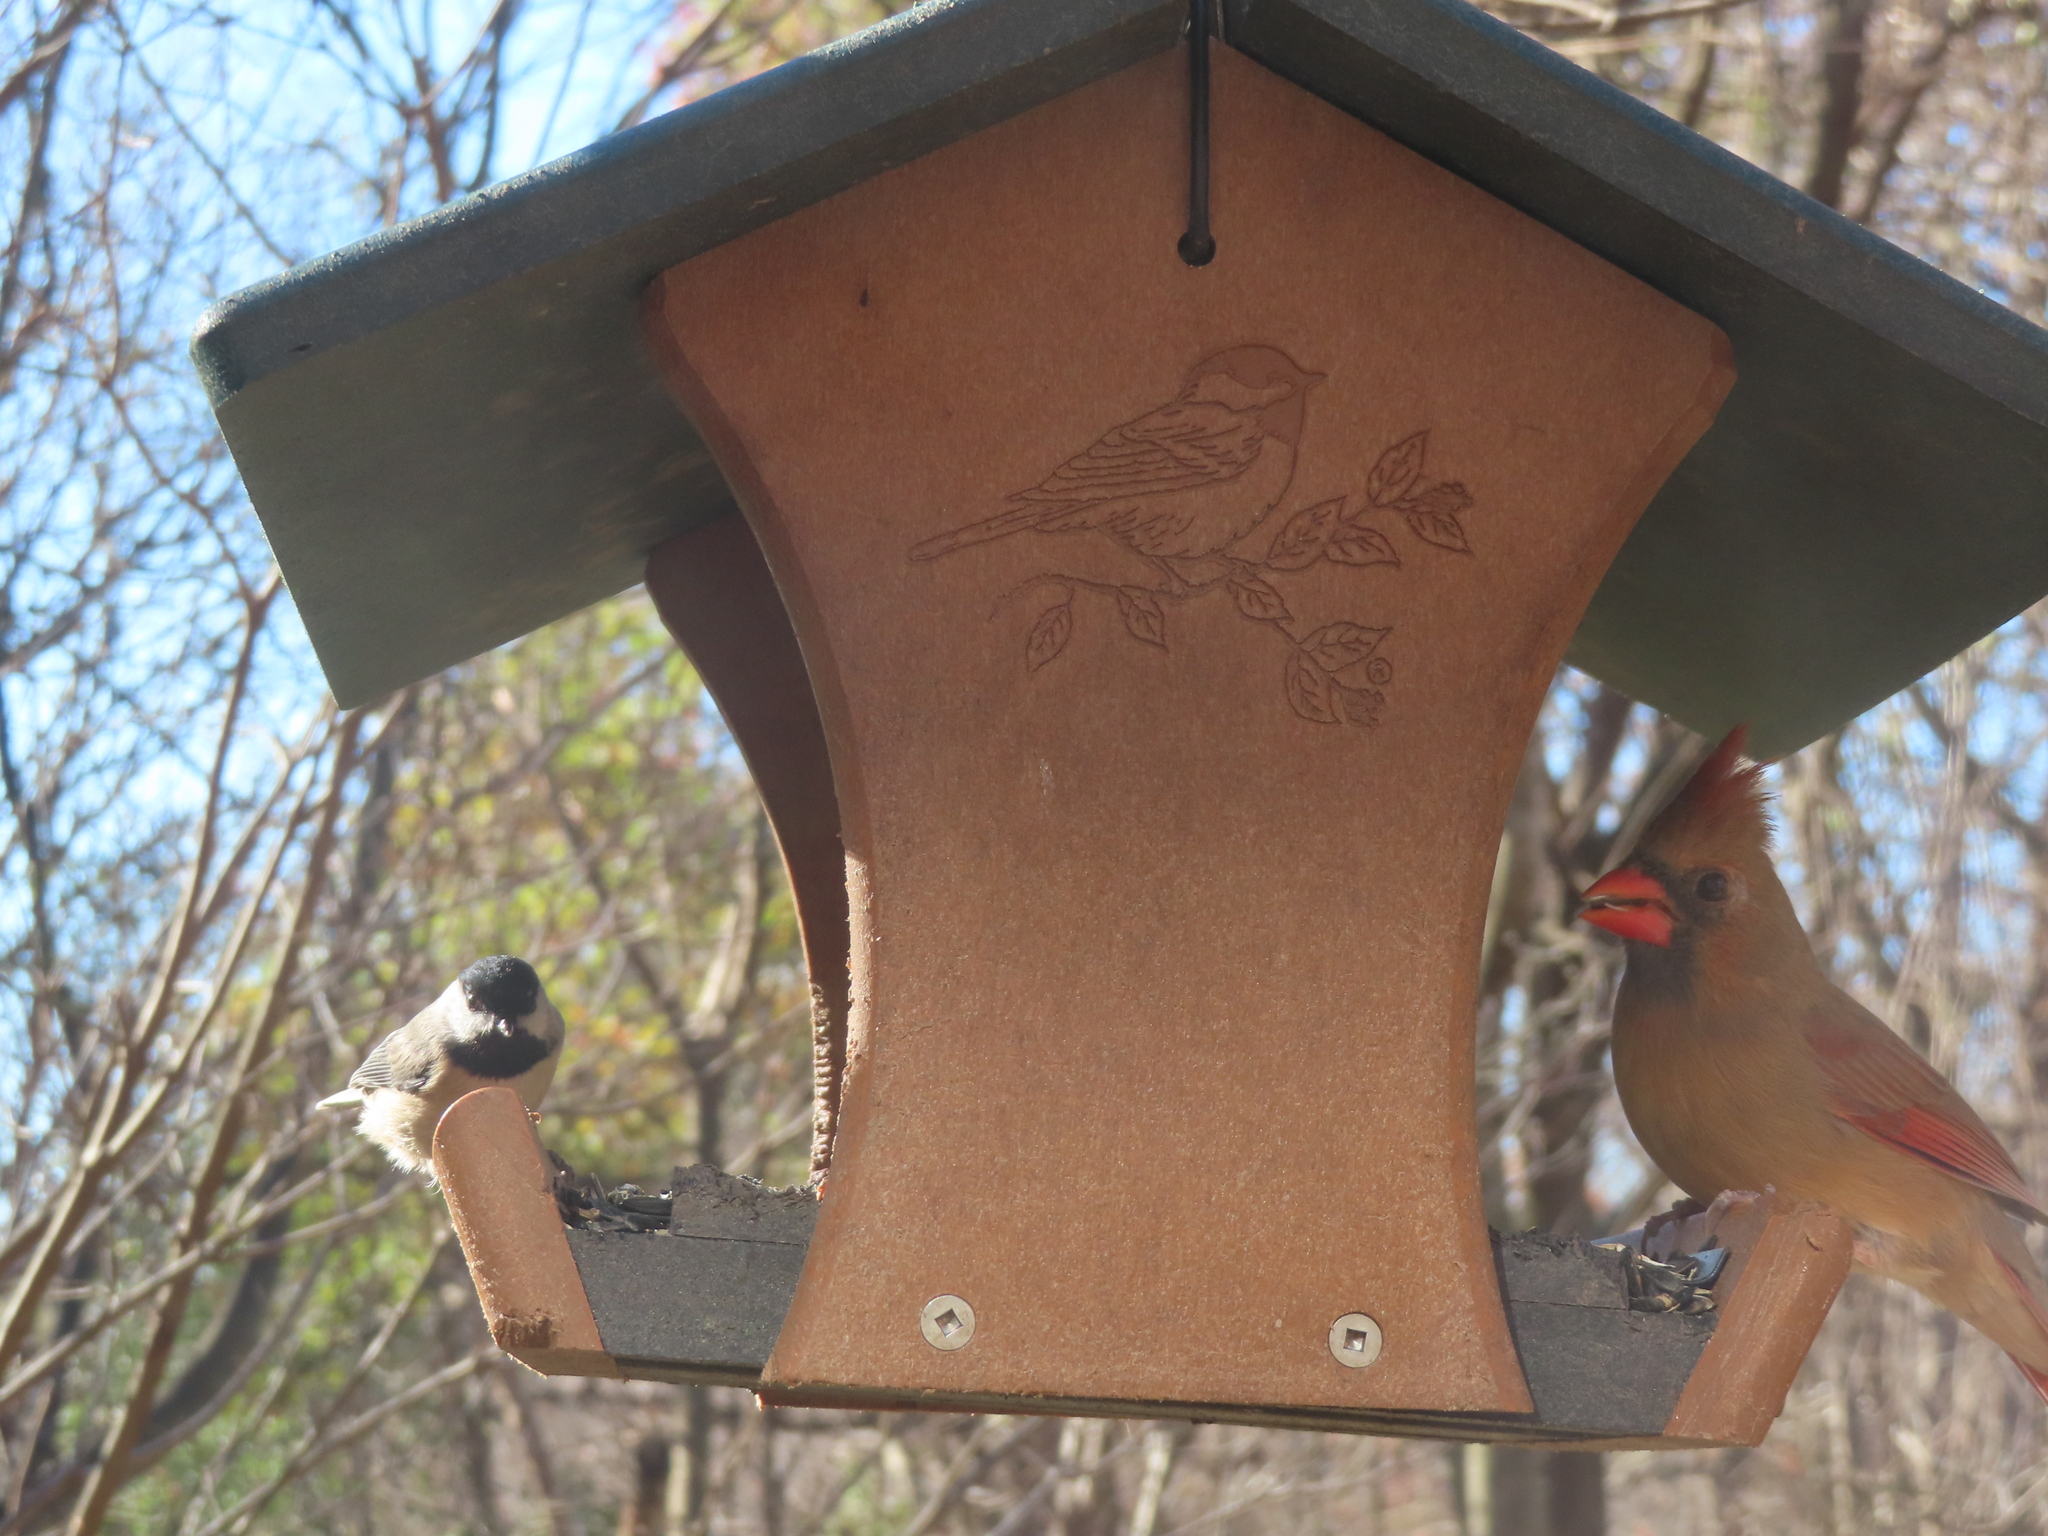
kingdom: Animalia
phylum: Chordata
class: Aves
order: Passeriformes
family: Cardinalidae
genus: Cardinalis
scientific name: Cardinalis cardinalis
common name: Northern cardinal
